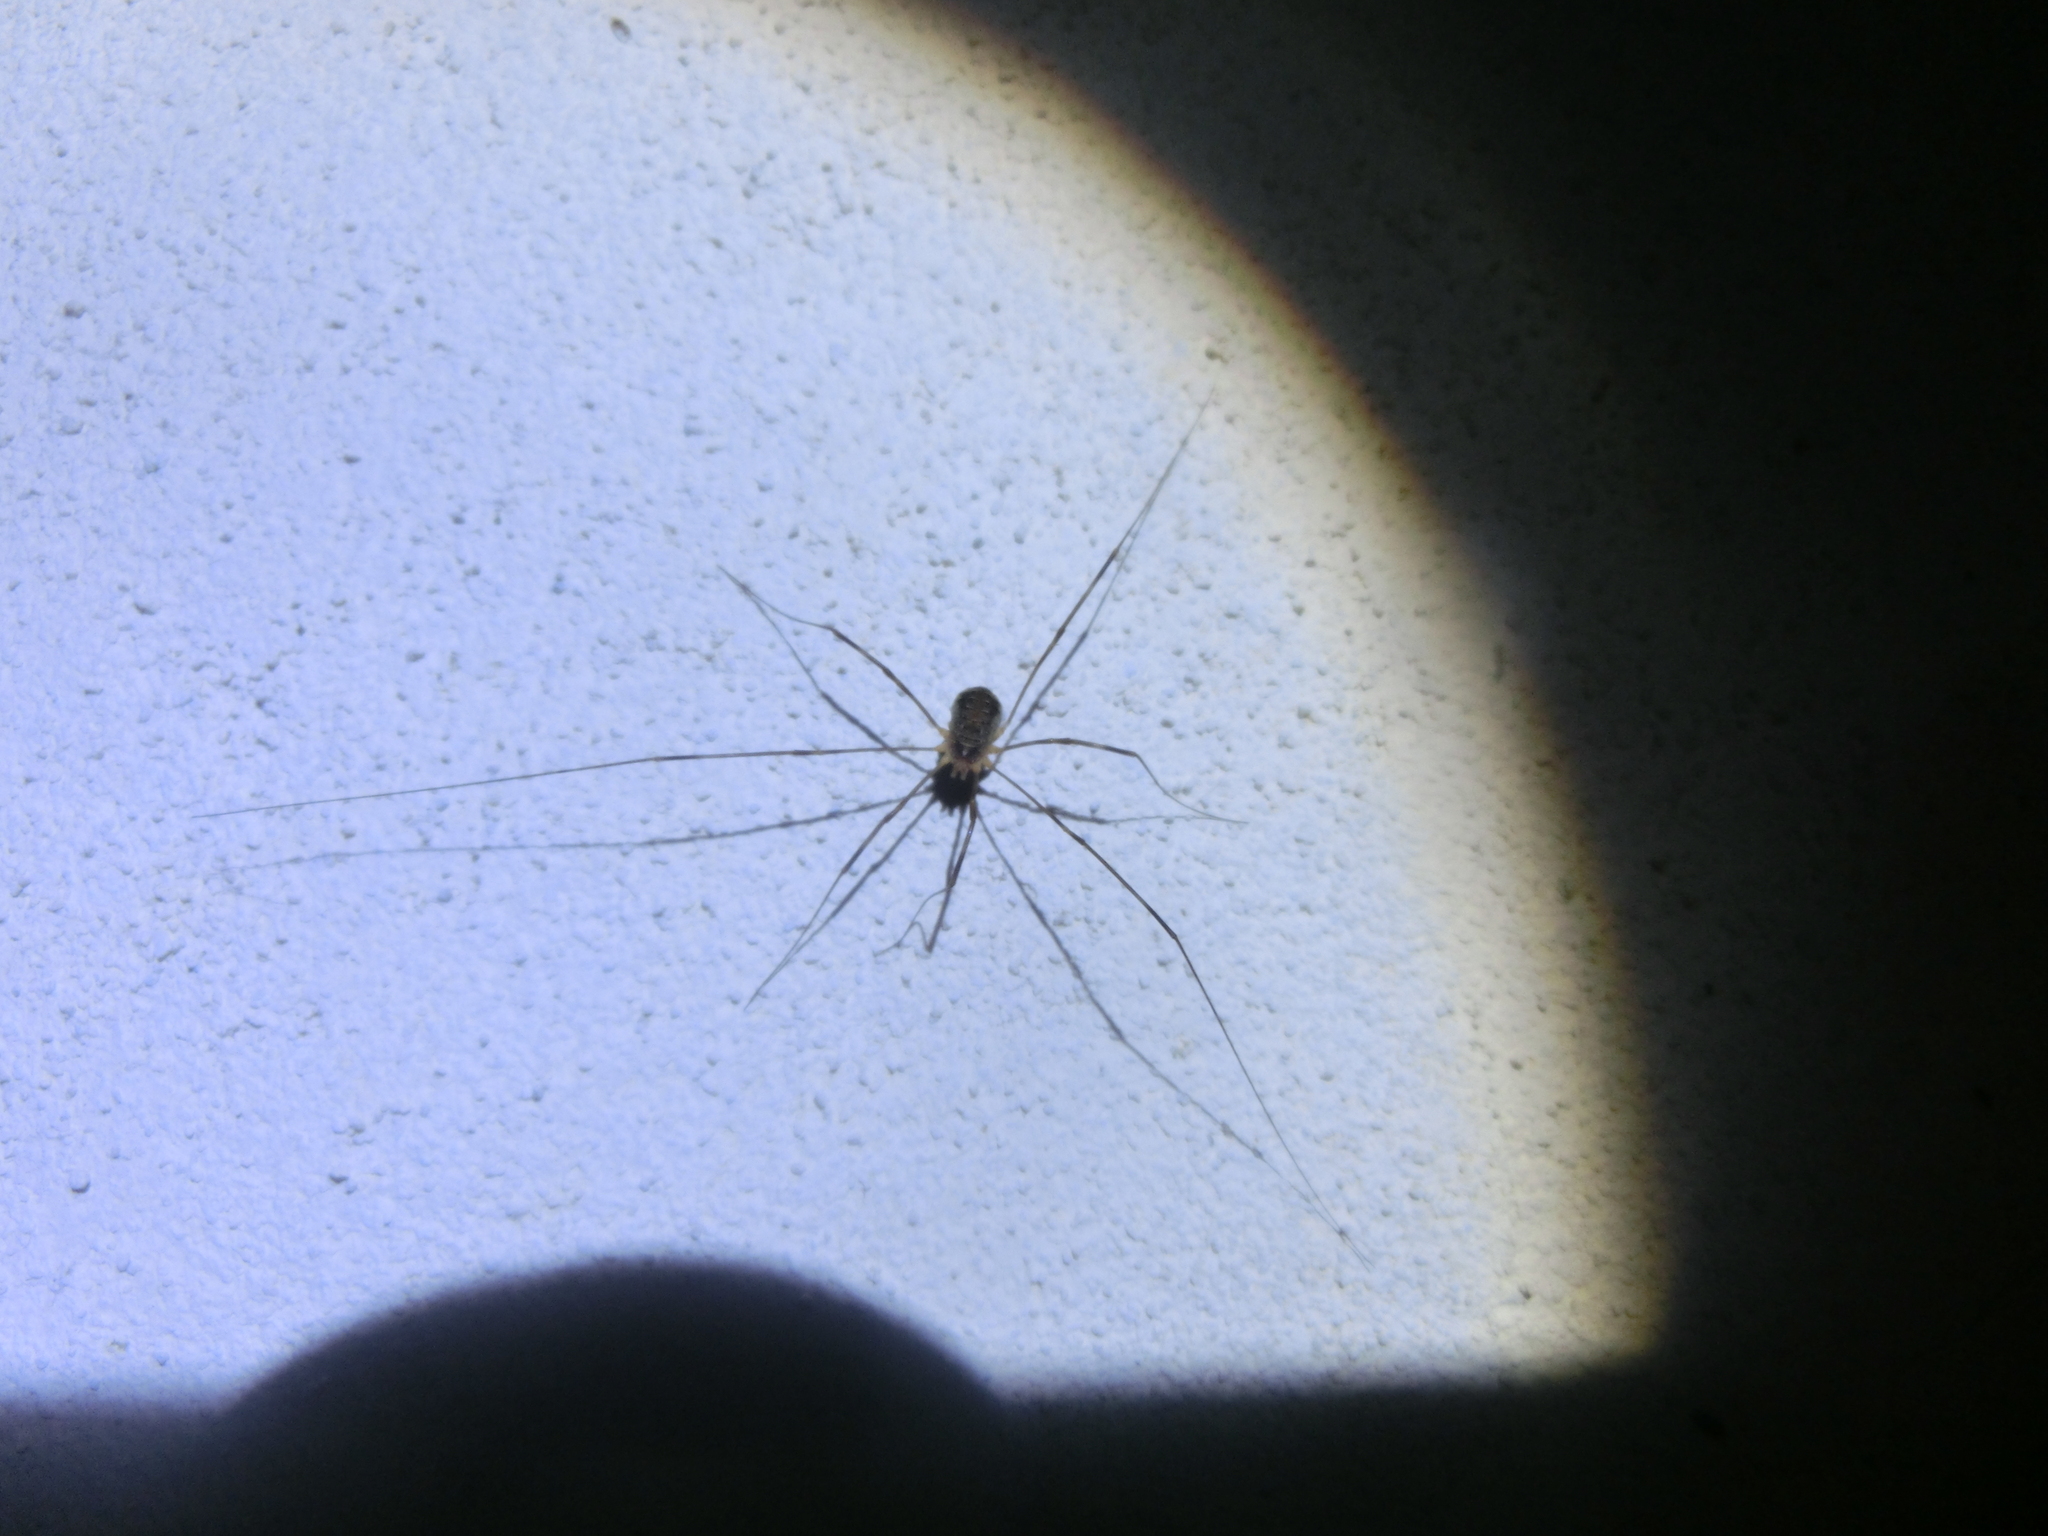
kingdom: Animalia
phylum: Arthropoda
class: Arachnida
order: Opiliones
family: Phalangiidae
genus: Opilio
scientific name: Opilio canestrinii
